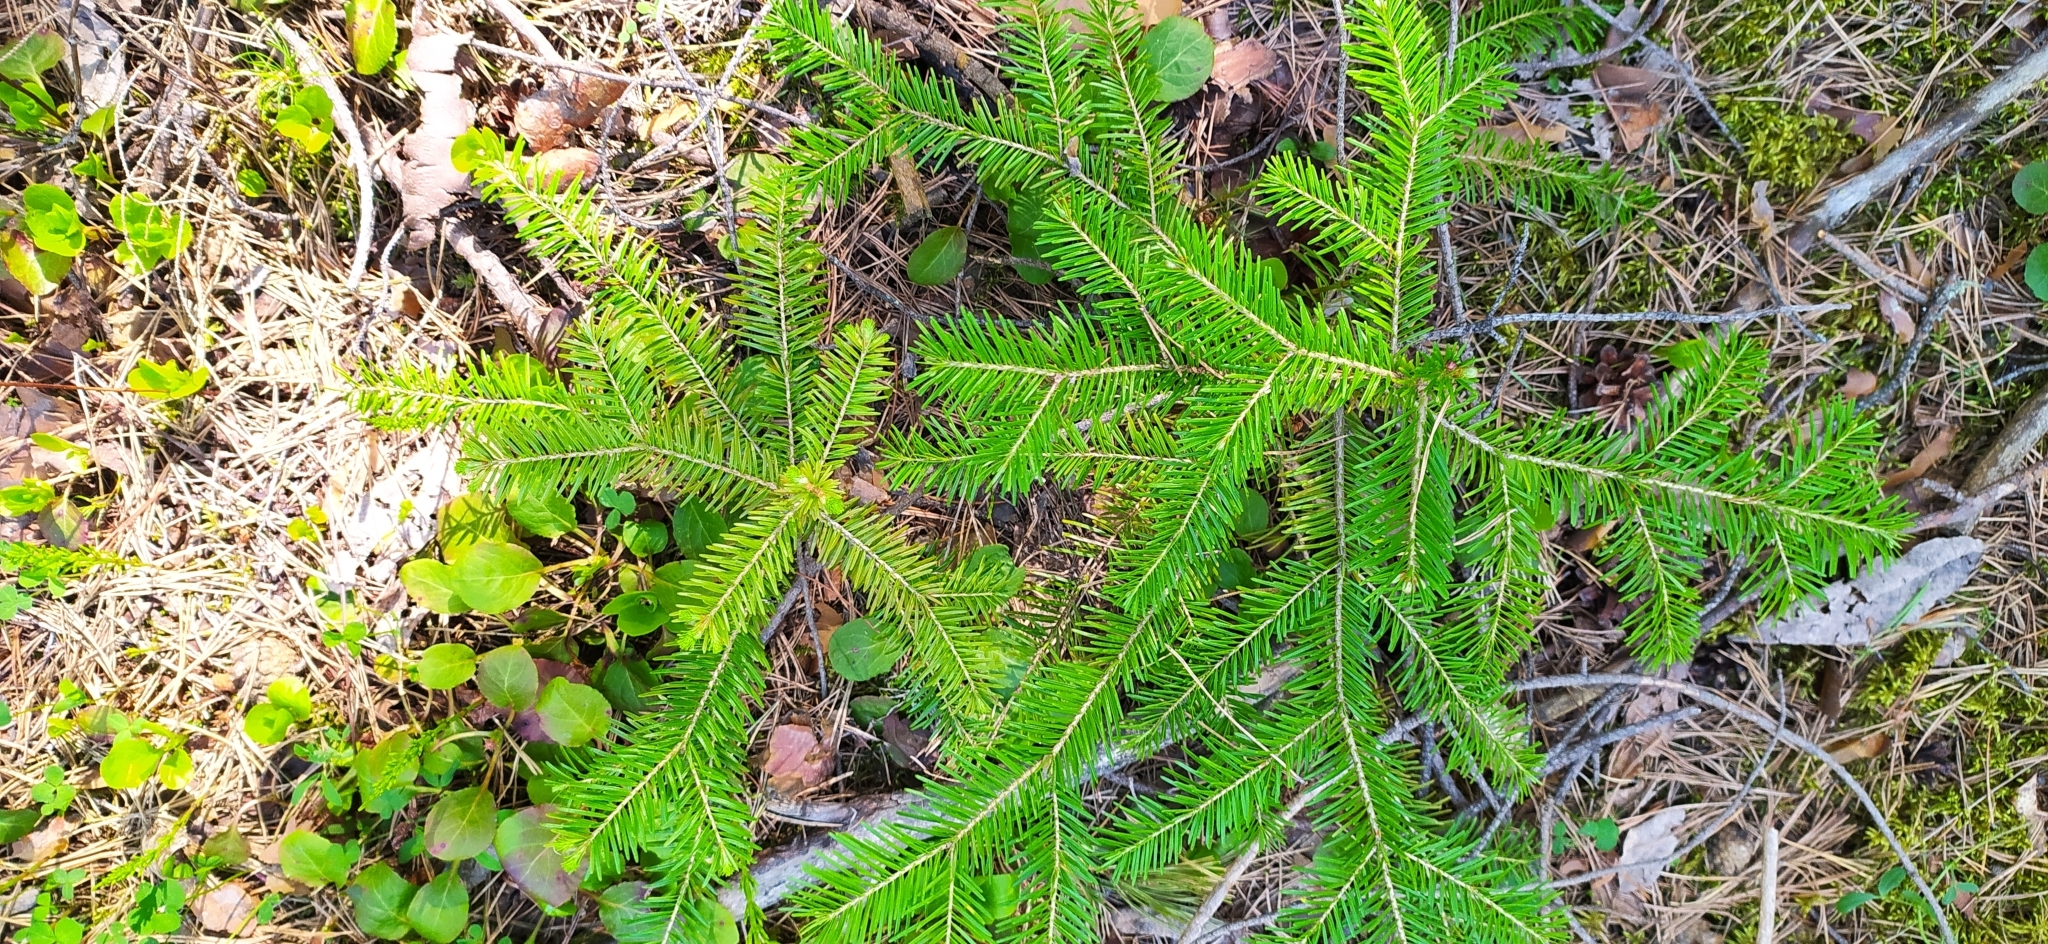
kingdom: Plantae
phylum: Tracheophyta
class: Pinopsida
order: Pinales
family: Pinaceae
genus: Abies
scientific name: Abies sibirica
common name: Siberian fir
